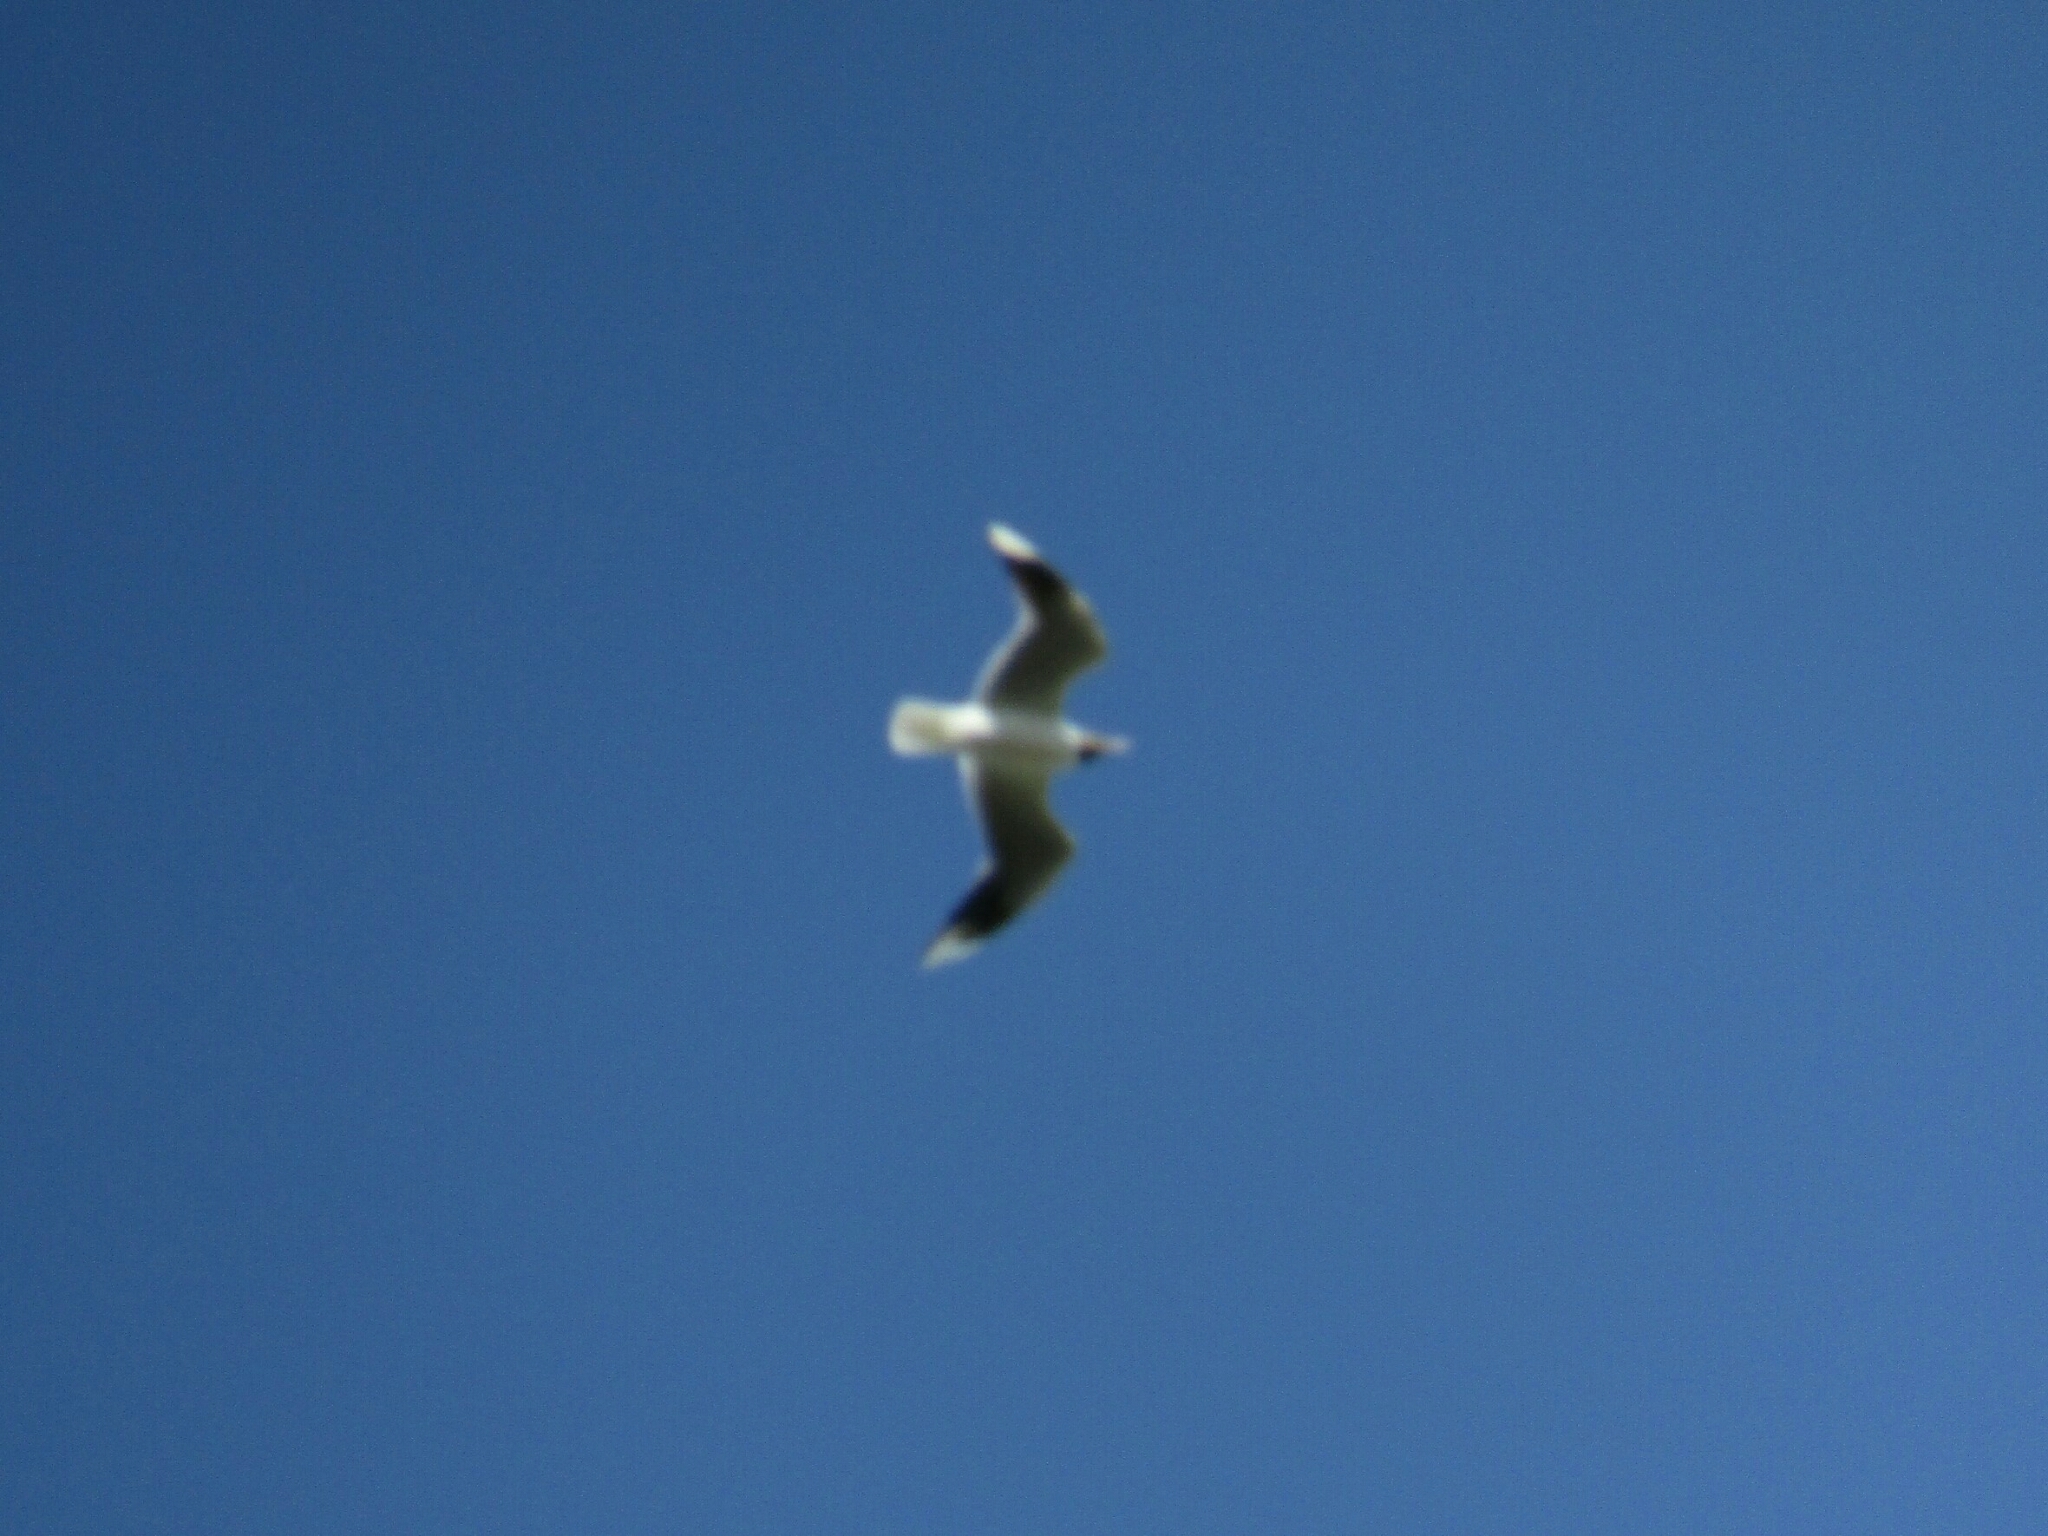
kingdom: Animalia
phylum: Chordata
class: Aves
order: Charadriiformes
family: Laridae
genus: Chroicocephalus
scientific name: Chroicocephalus maculipennis
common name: Brown-hooded gull
